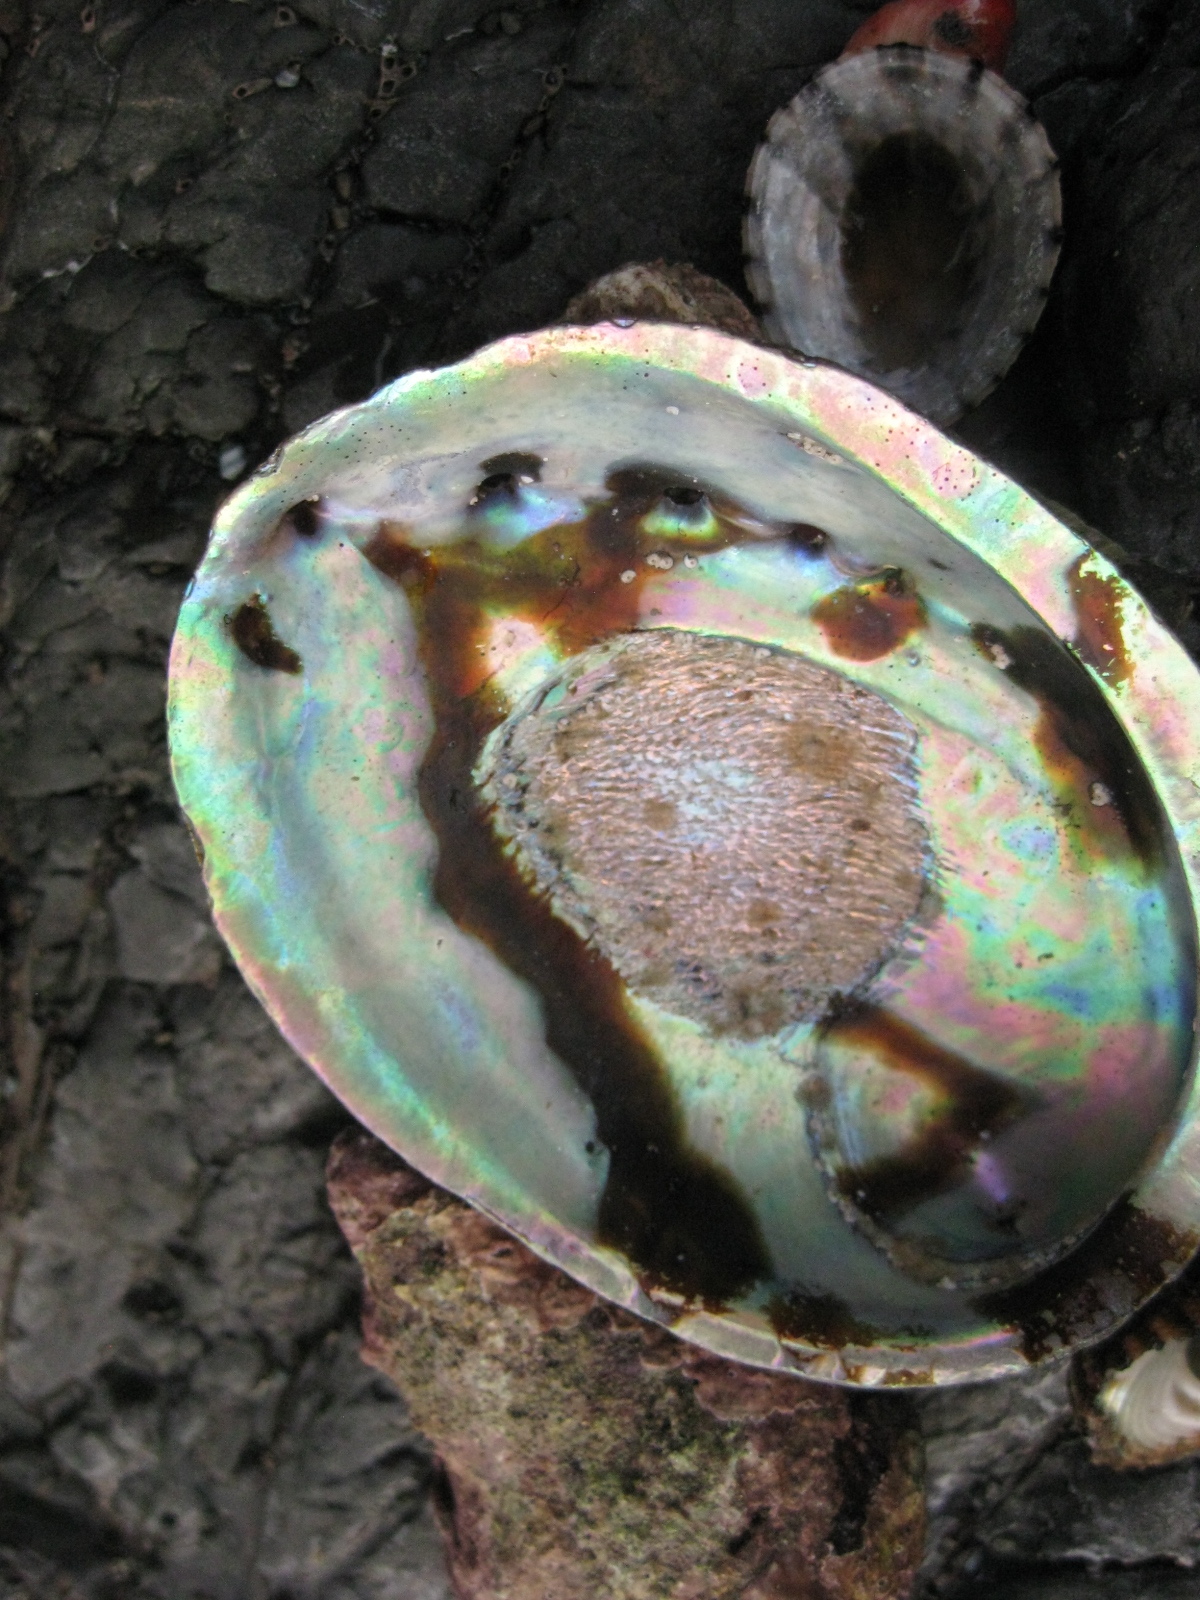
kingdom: Animalia
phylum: Mollusca
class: Gastropoda
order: Lepetellida
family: Haliotidae
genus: Haliotis
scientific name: Haliotis iris
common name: Abalone
